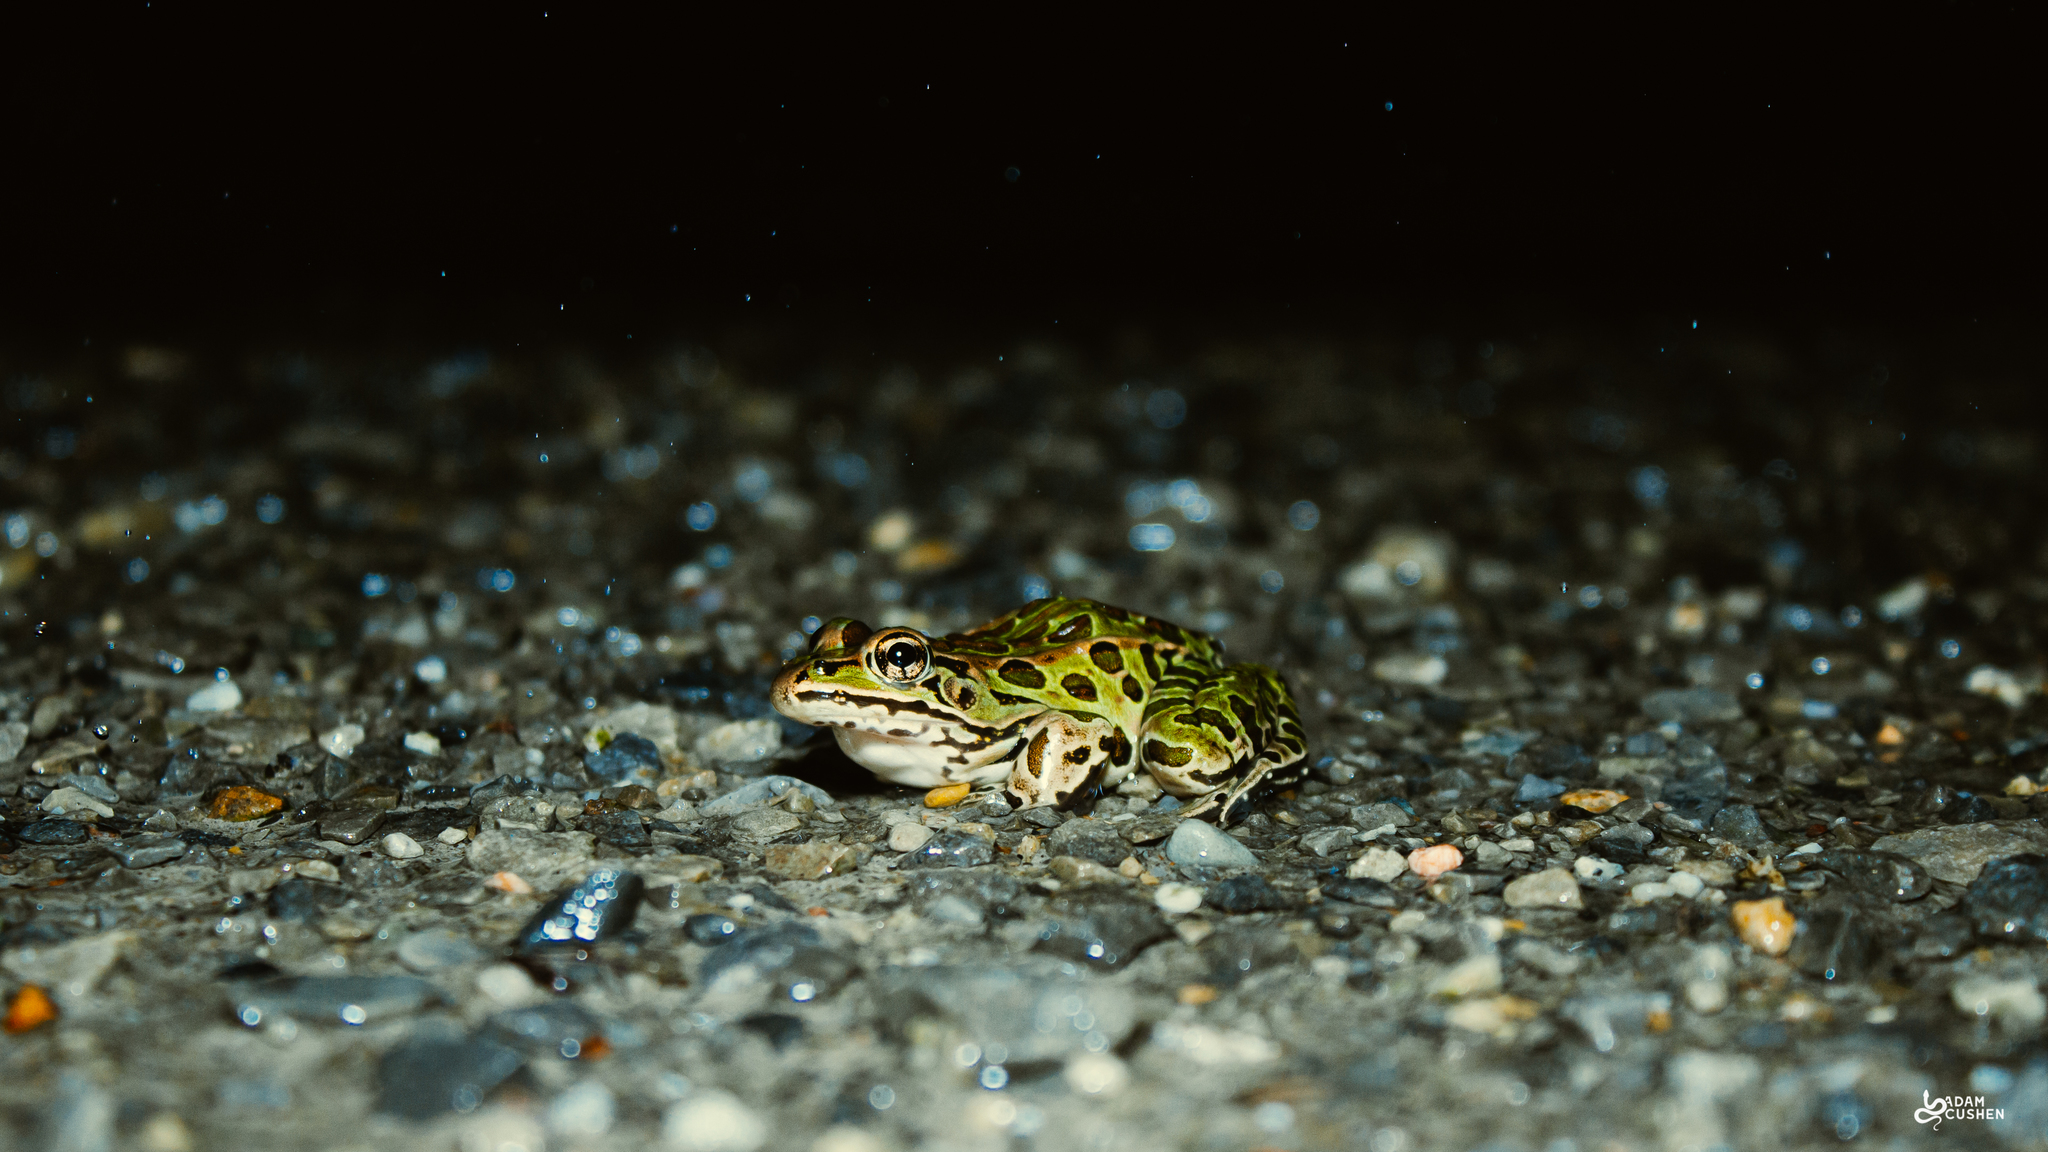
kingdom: Animalia
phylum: Chordata
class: Amphibia
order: Anura
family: Ranidae
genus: Lithobates
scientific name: Lithobates pipiens
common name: Northern leopard frog
